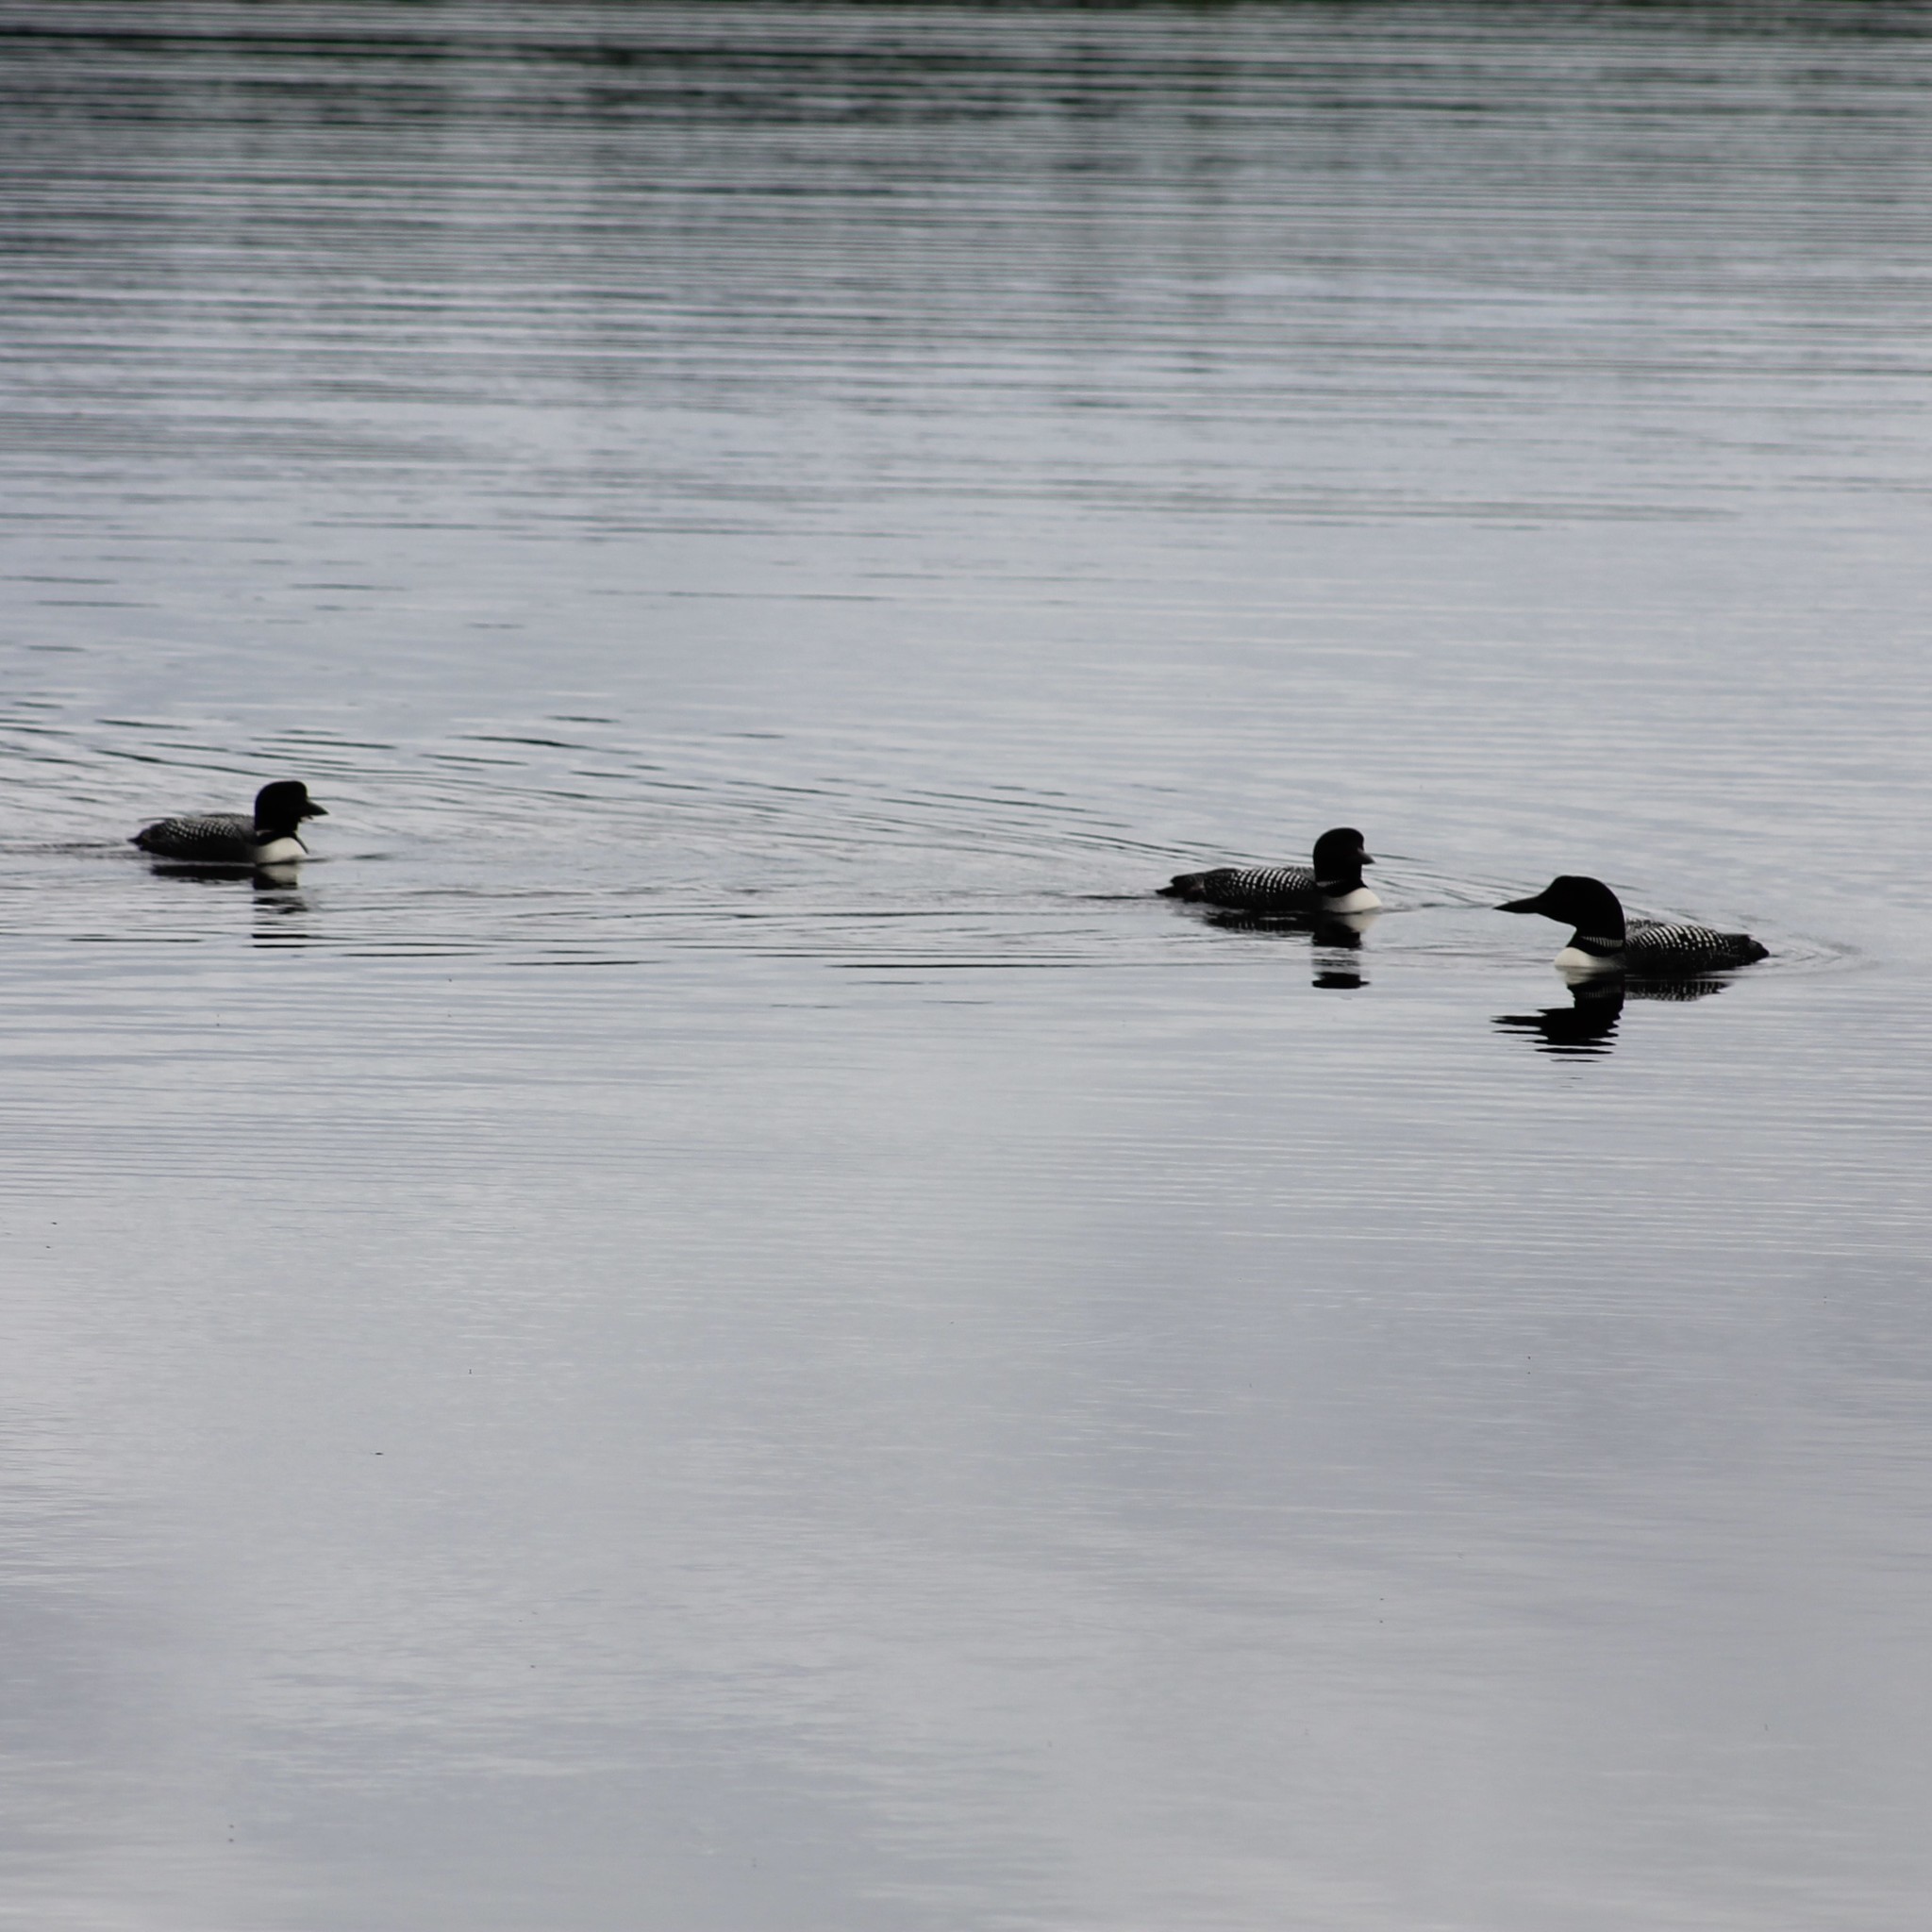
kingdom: Animalia
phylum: Chordata
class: Aves
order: Gaviiformes
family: Gaviidae
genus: Gavia
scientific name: Gavia immer
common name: Common loon
